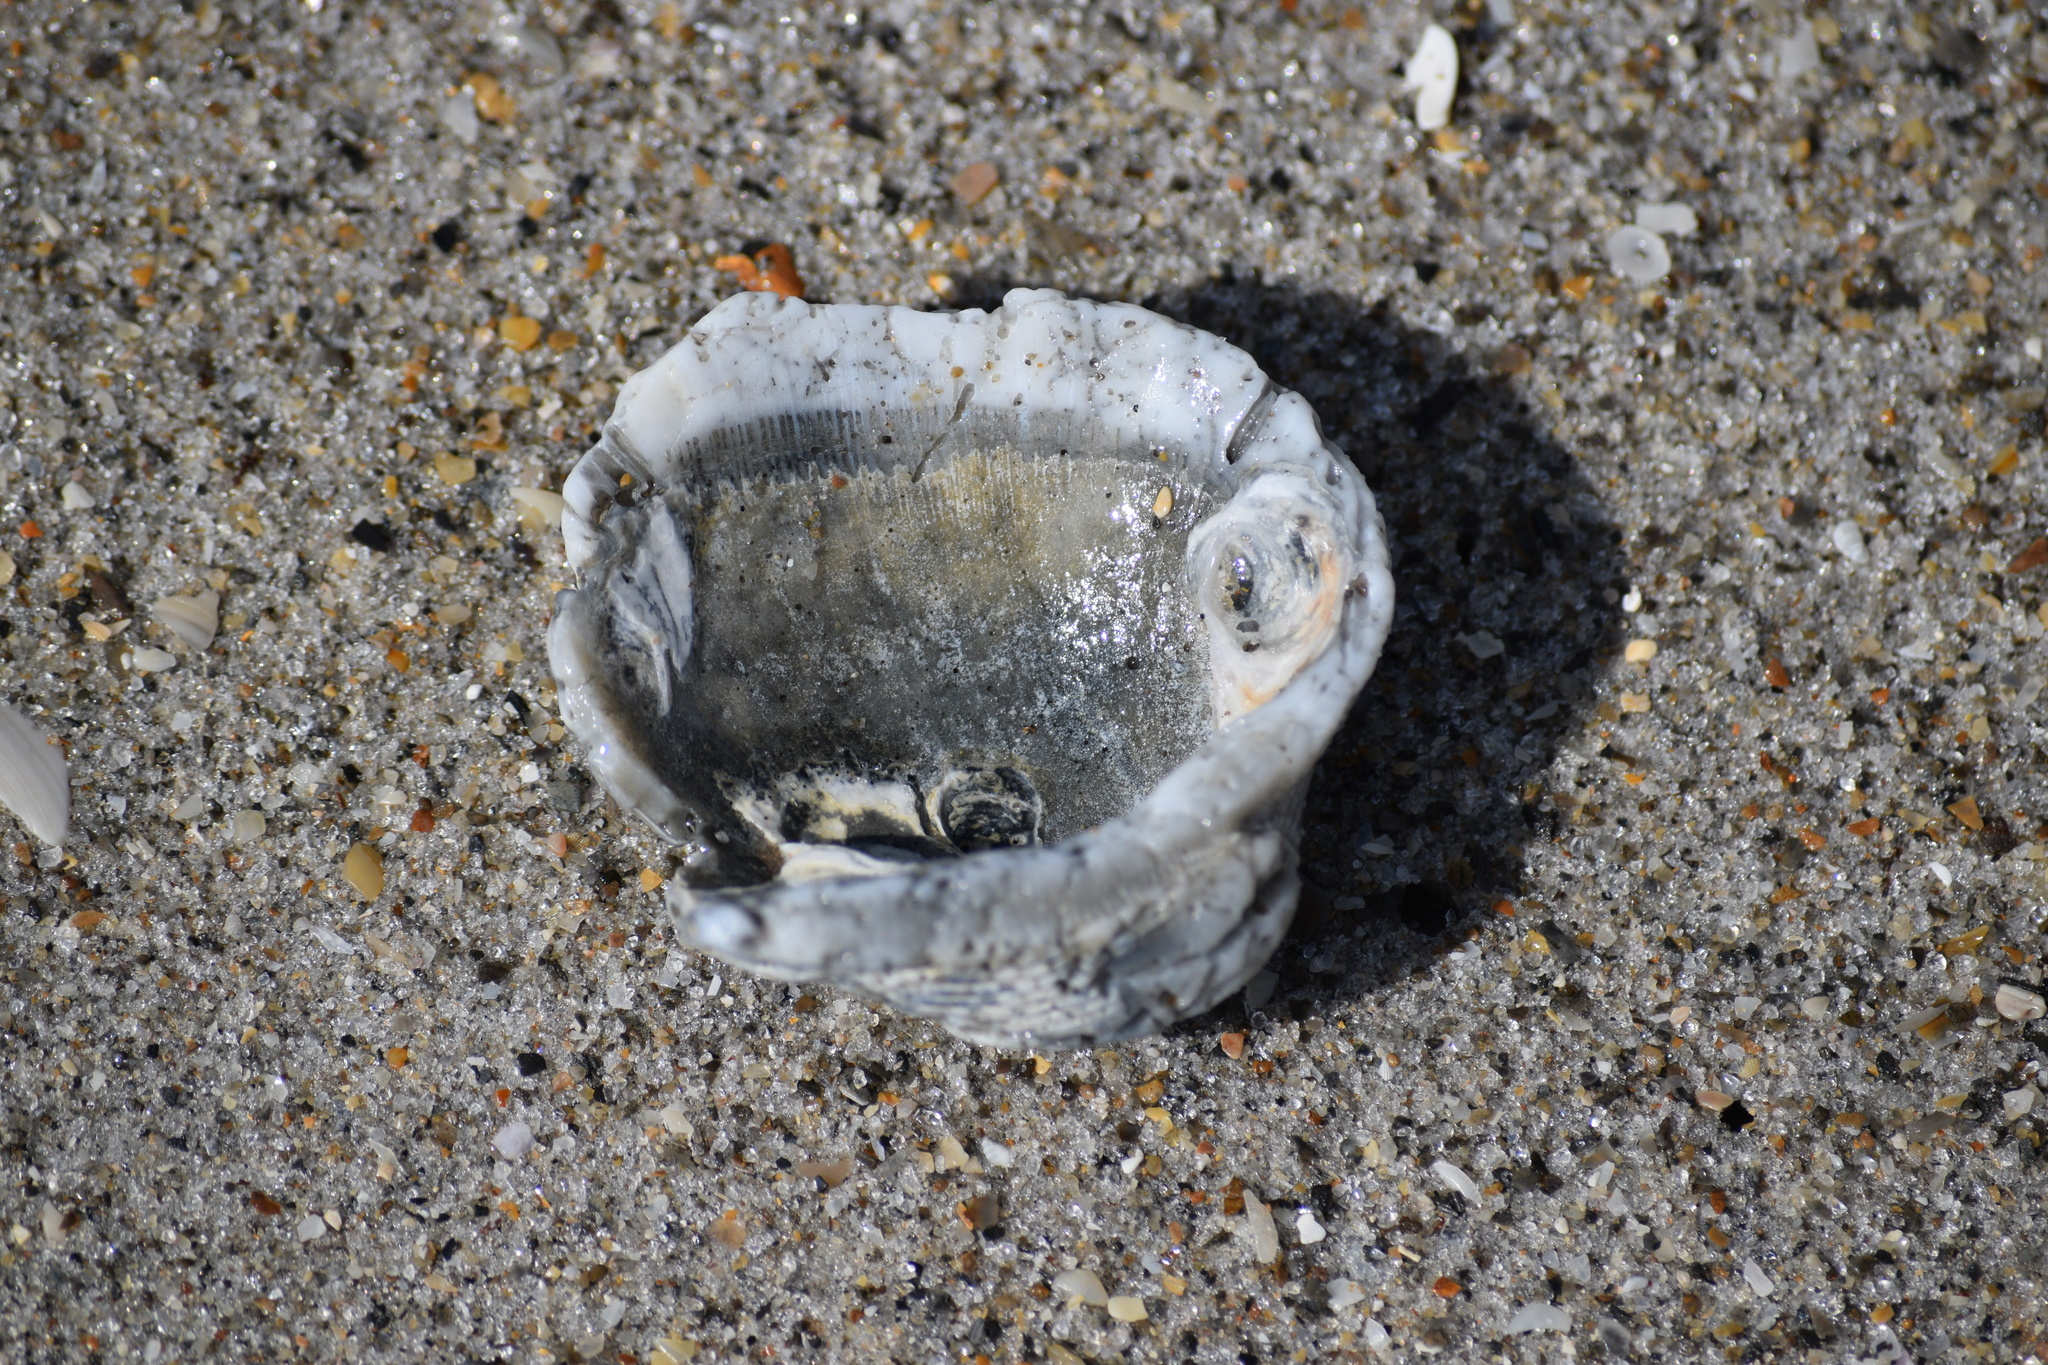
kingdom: Animalia
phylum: Mollusca
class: Bivalvia
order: Arcida
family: Arcidae
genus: Lunarca
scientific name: Lunarca ovalis
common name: Blood ark
